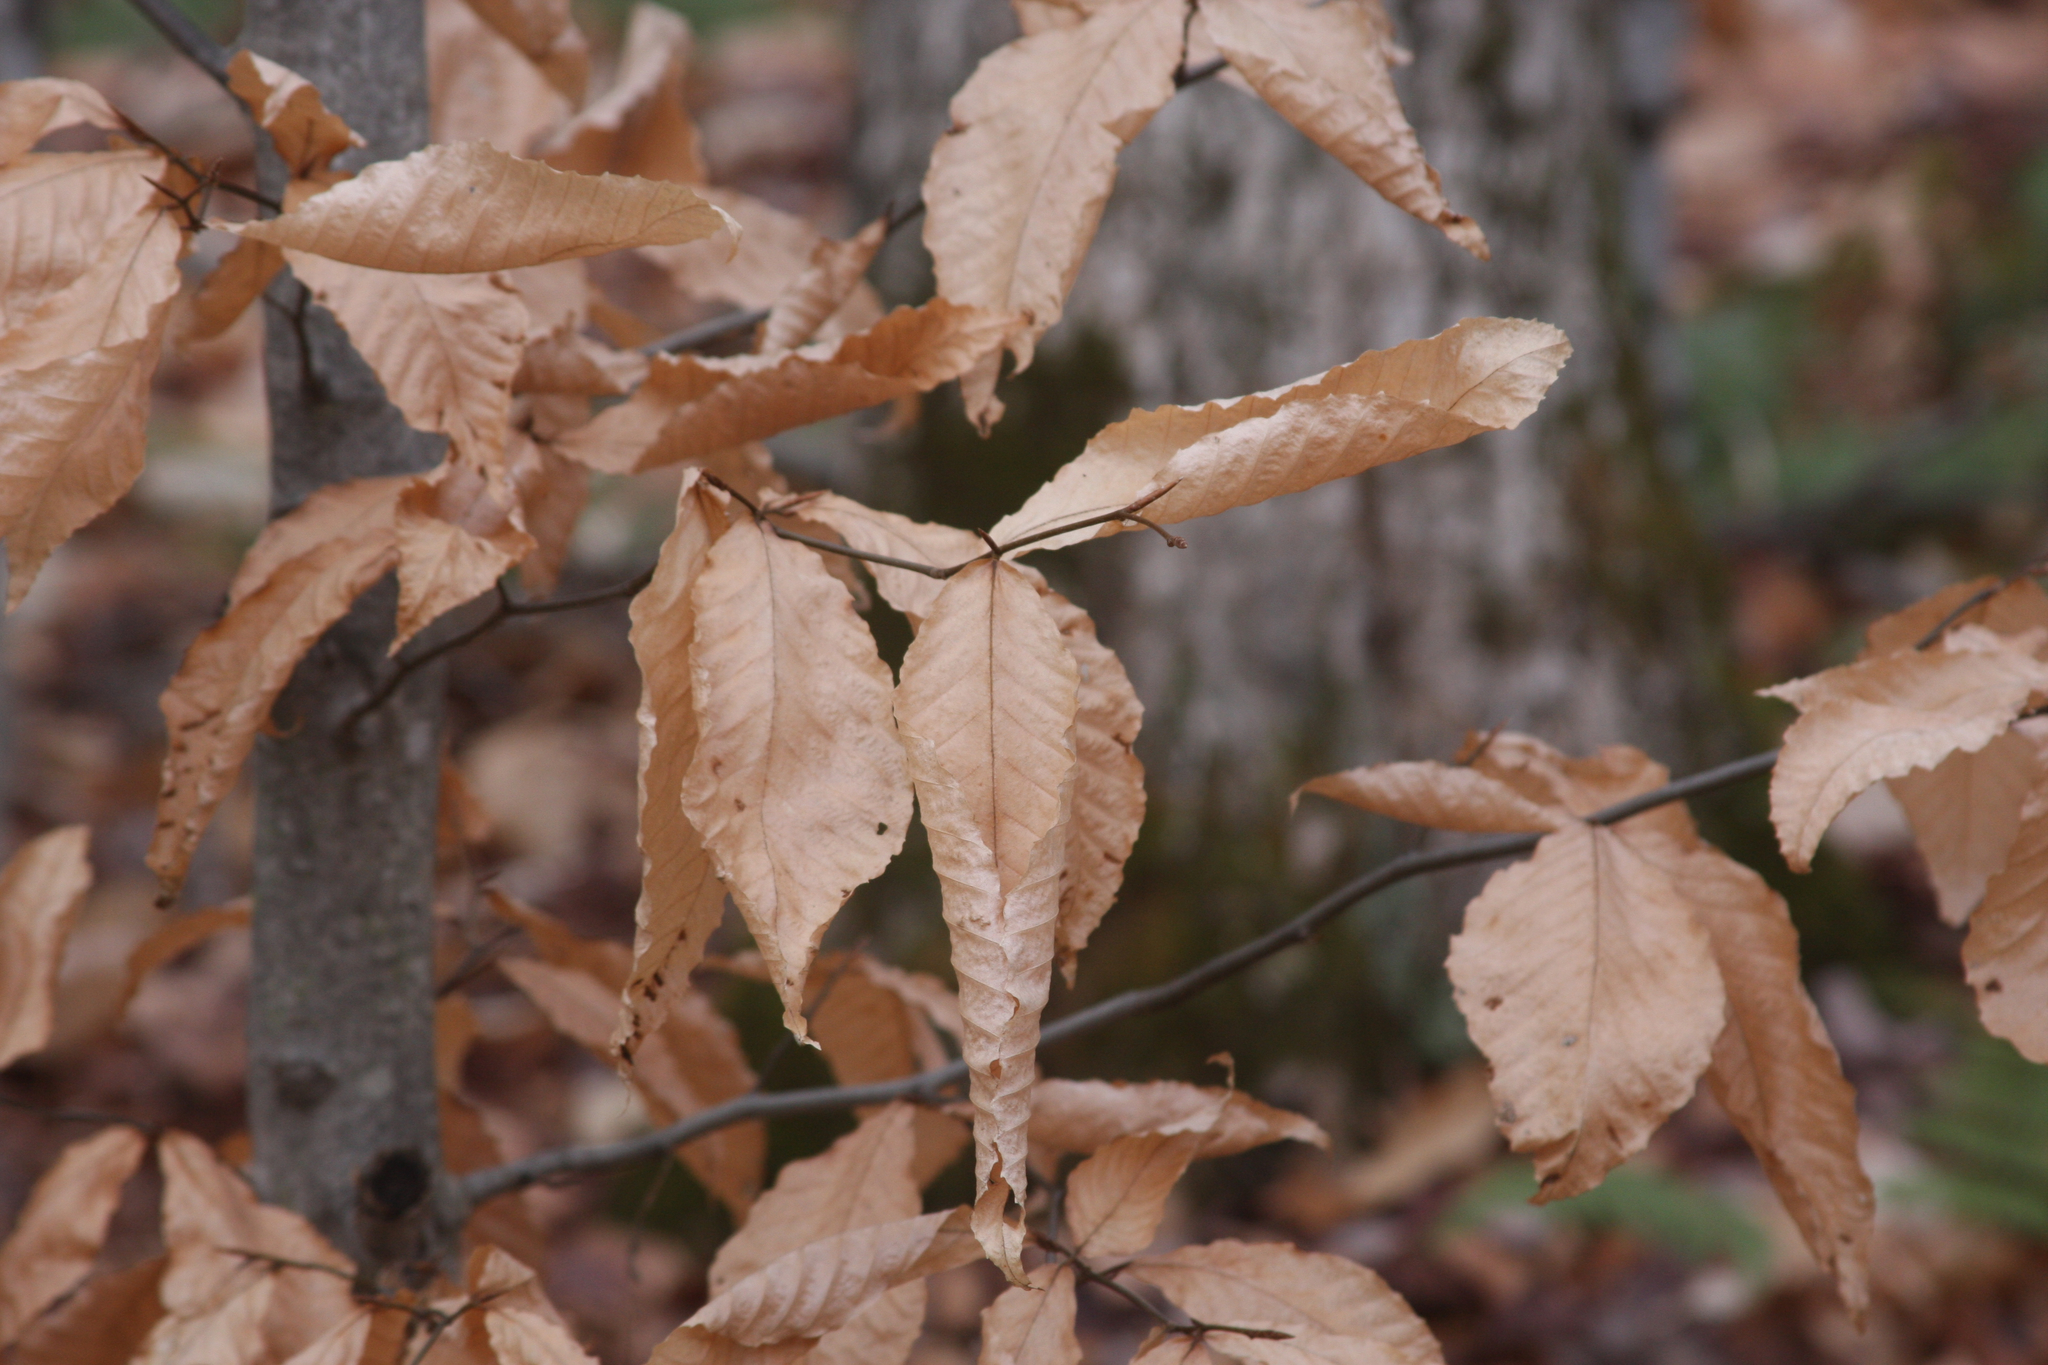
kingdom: Plantae
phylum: Tracheophyta
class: Magnoliopsida
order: Fagales
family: Fagaceae
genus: Fagus
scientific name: Fagus grandifolia
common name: American beech
